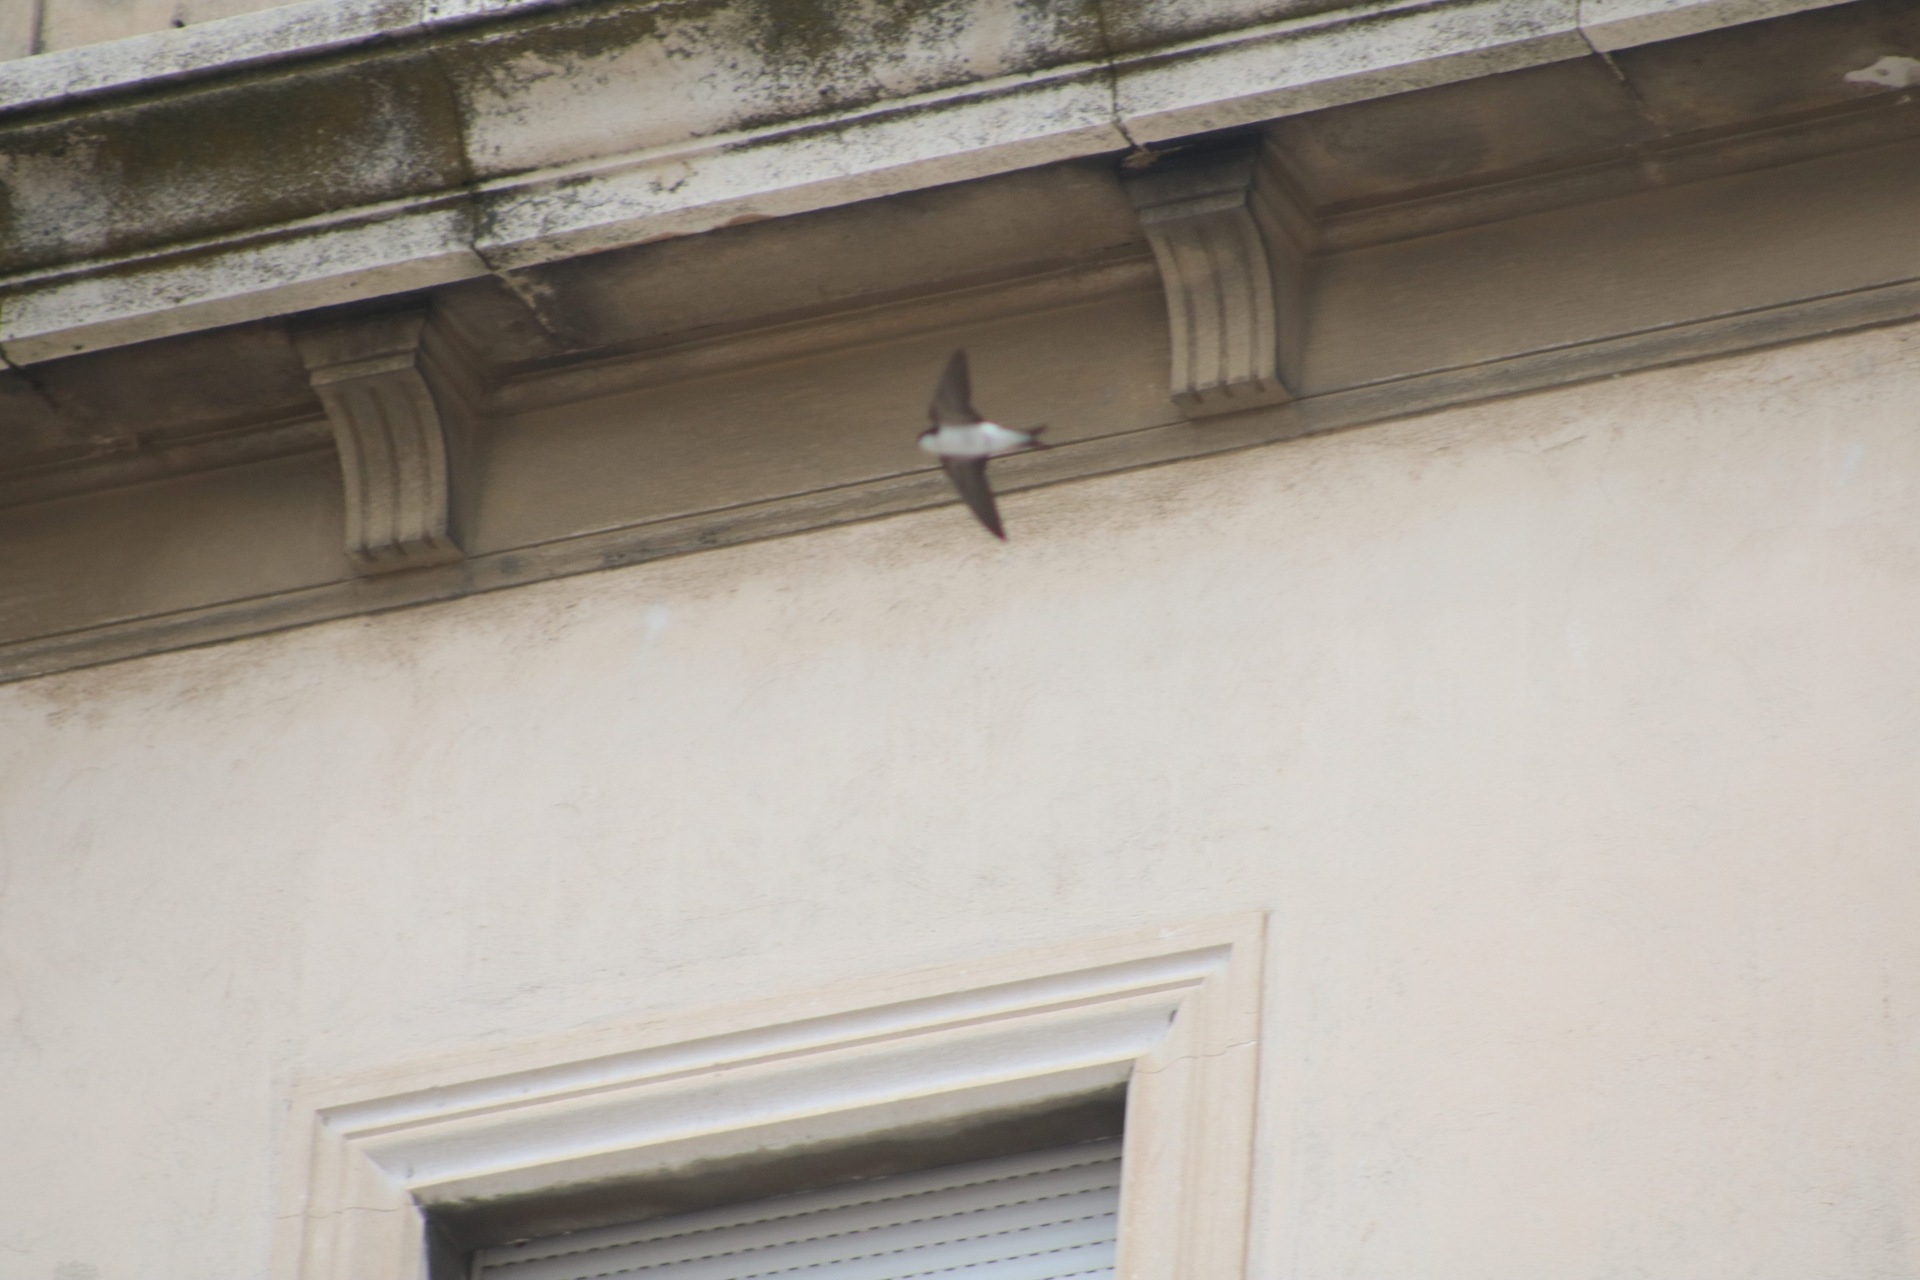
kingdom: Animalia
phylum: Chordata
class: Aves
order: Passeriformes
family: Hirundinidae
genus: Delichon
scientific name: Delichon urbicum
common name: Common house martin
